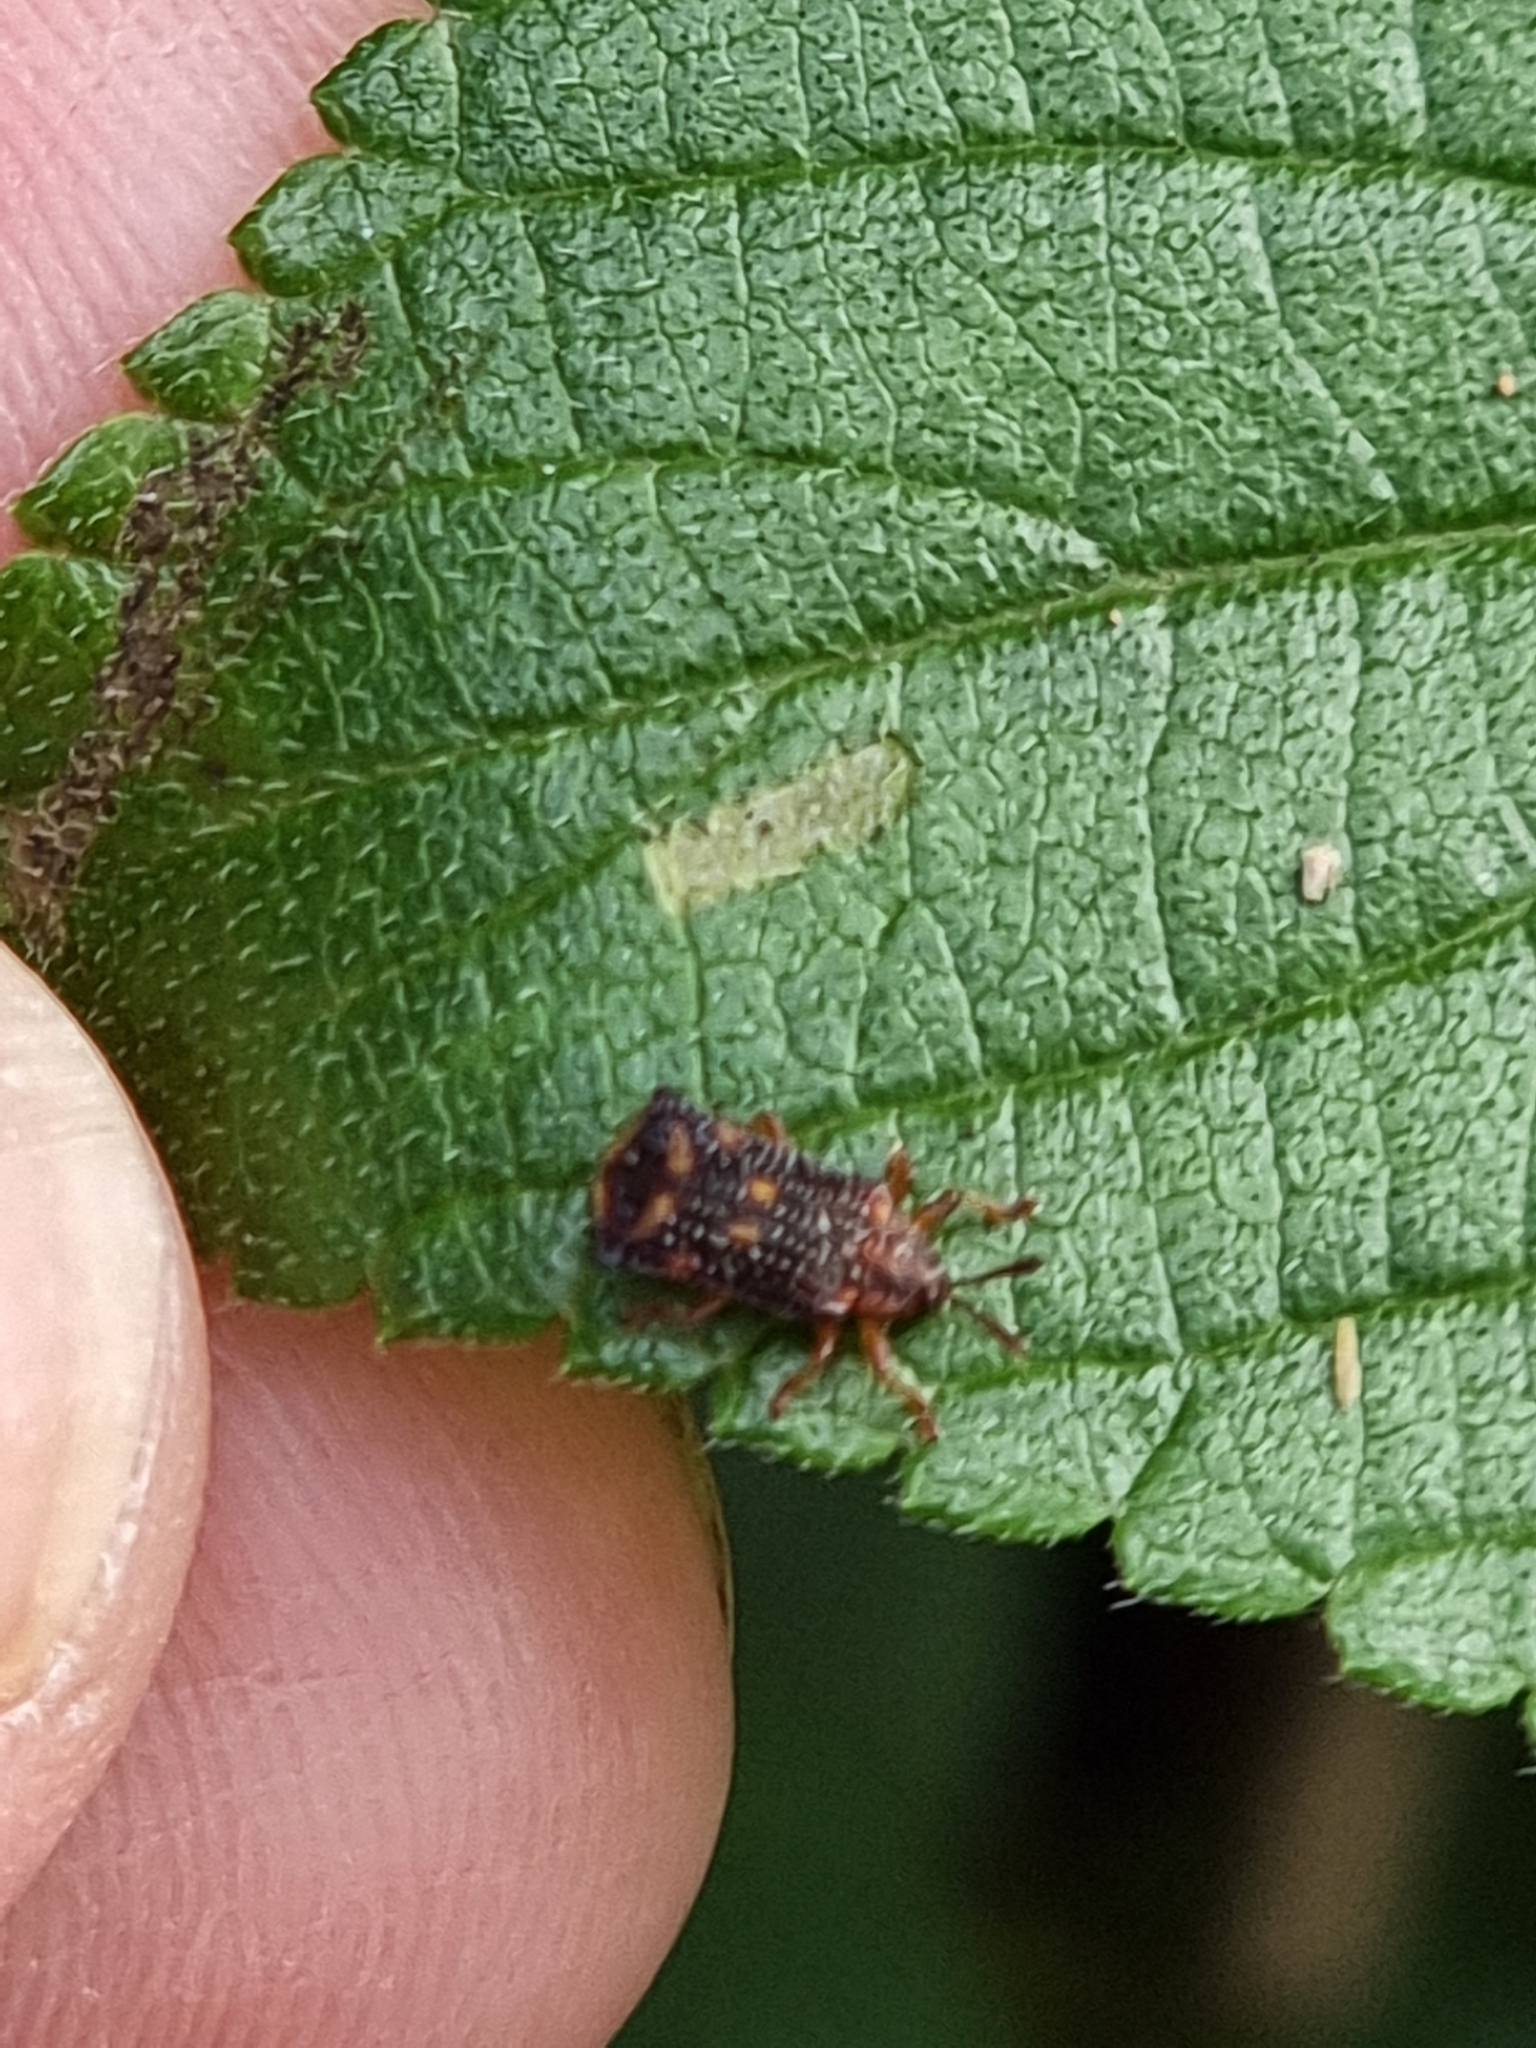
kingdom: Animalia
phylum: Arthropoda
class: Insecta
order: Coleoptera
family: Chrysomelidae
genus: Uroplata
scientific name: Uroplata girardi
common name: Lantana leafminer
